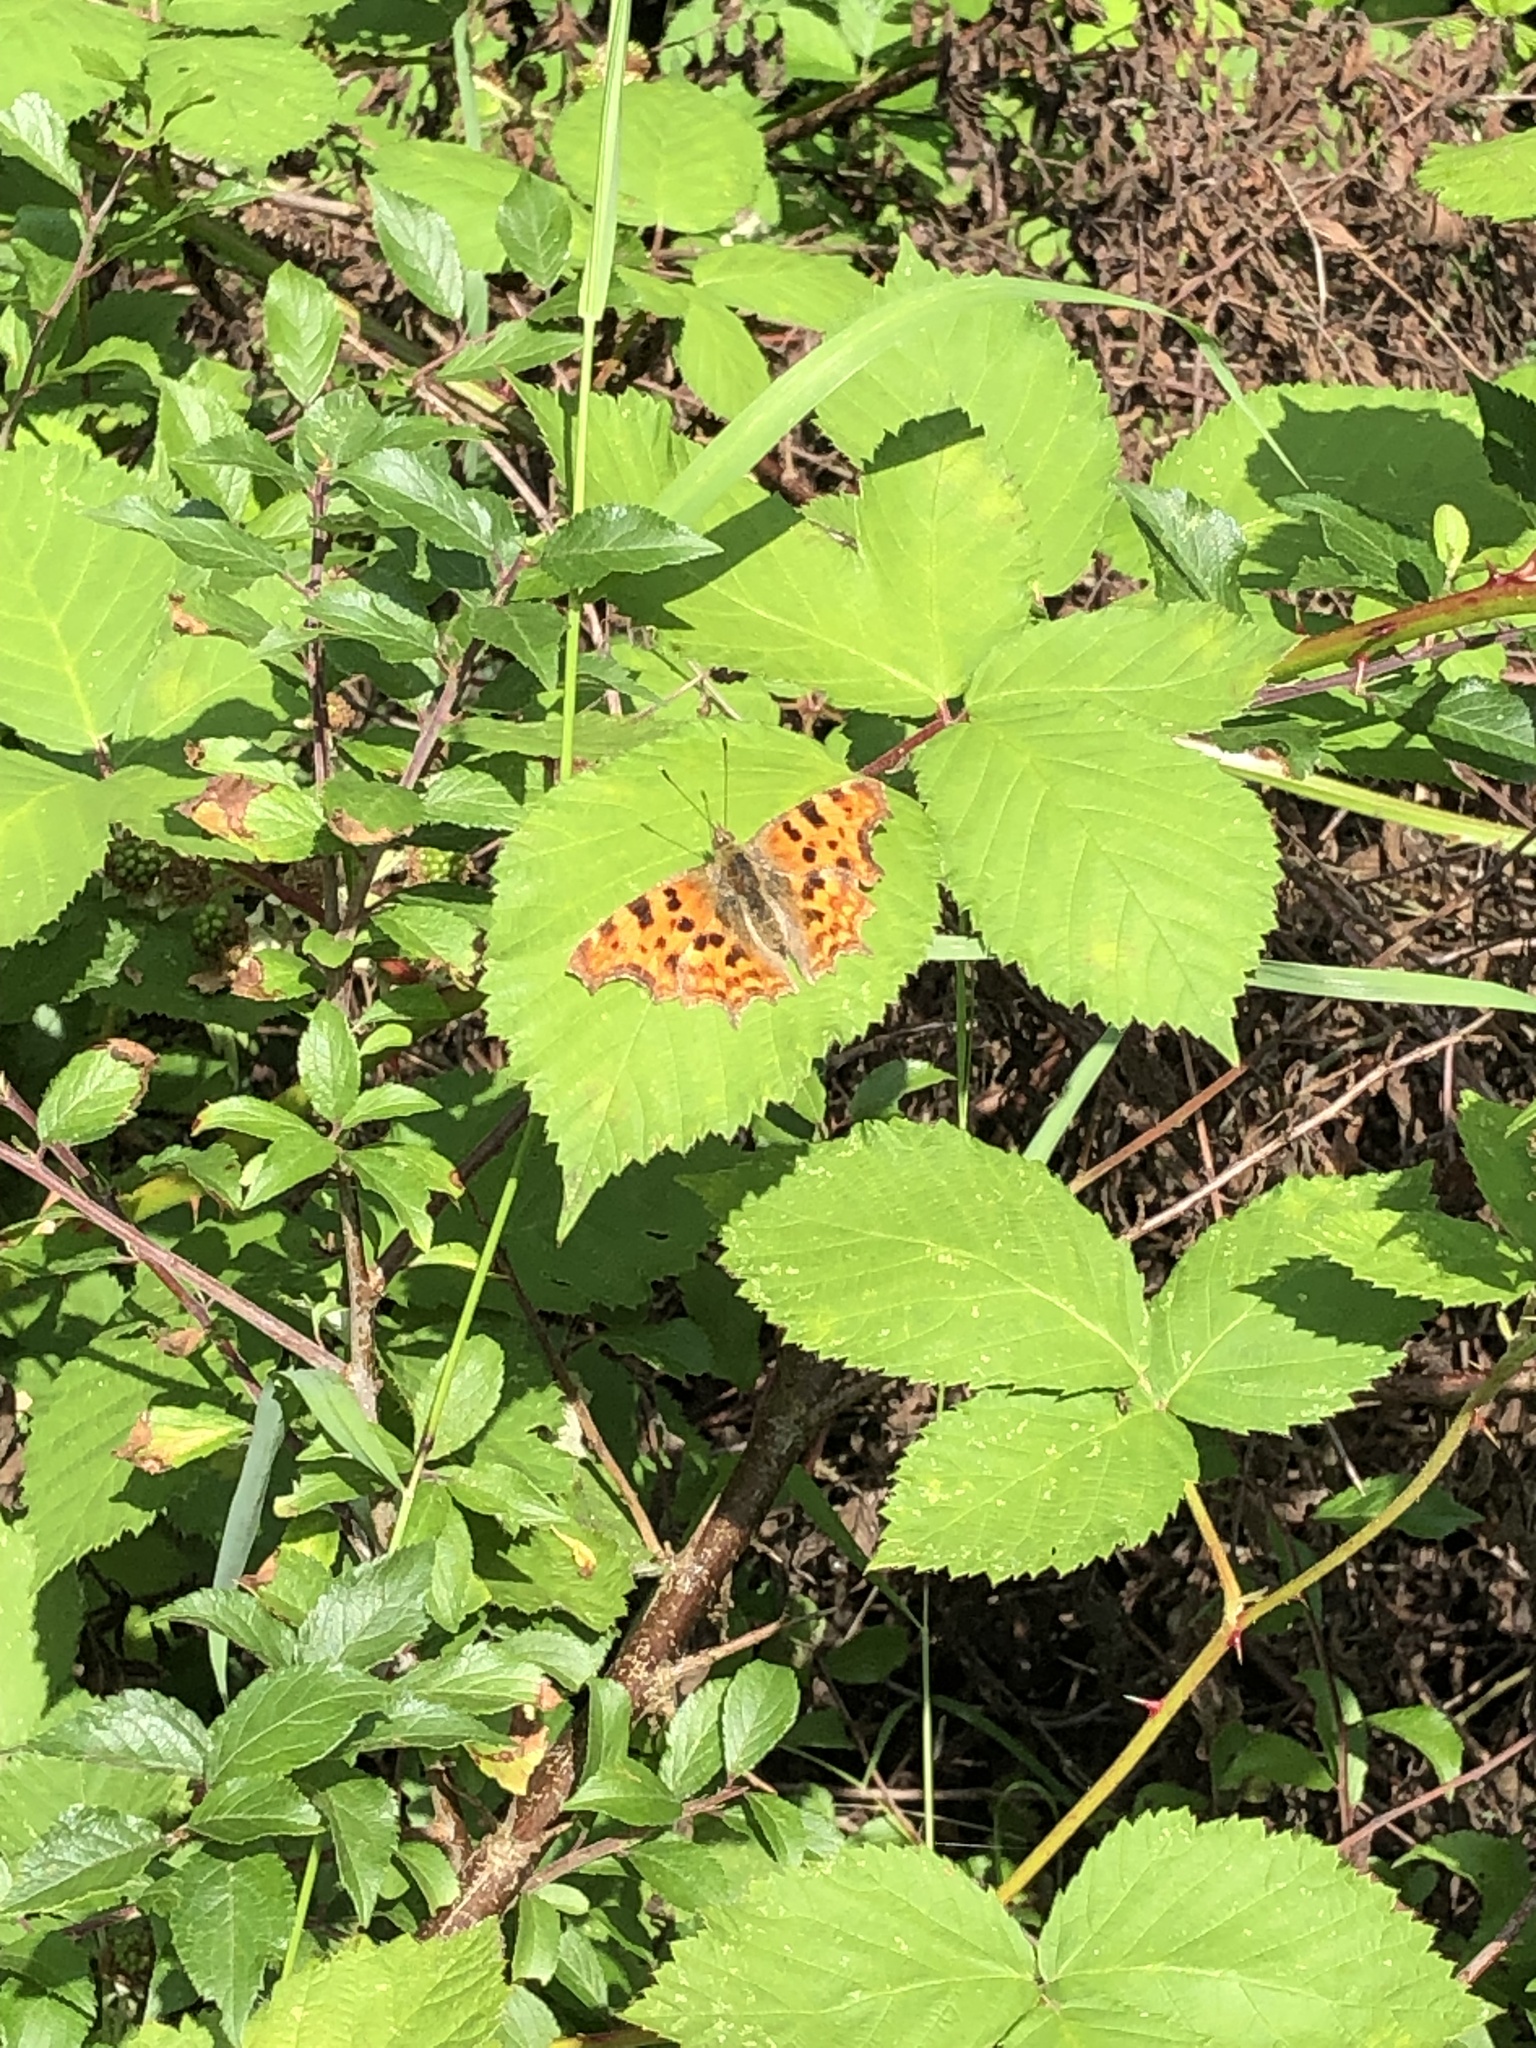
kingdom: Animalia
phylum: Arthropoda
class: Insecta
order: Lepidoptera
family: Nymphalidae
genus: Polygonia
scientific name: Polygonia c-album
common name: Comma
